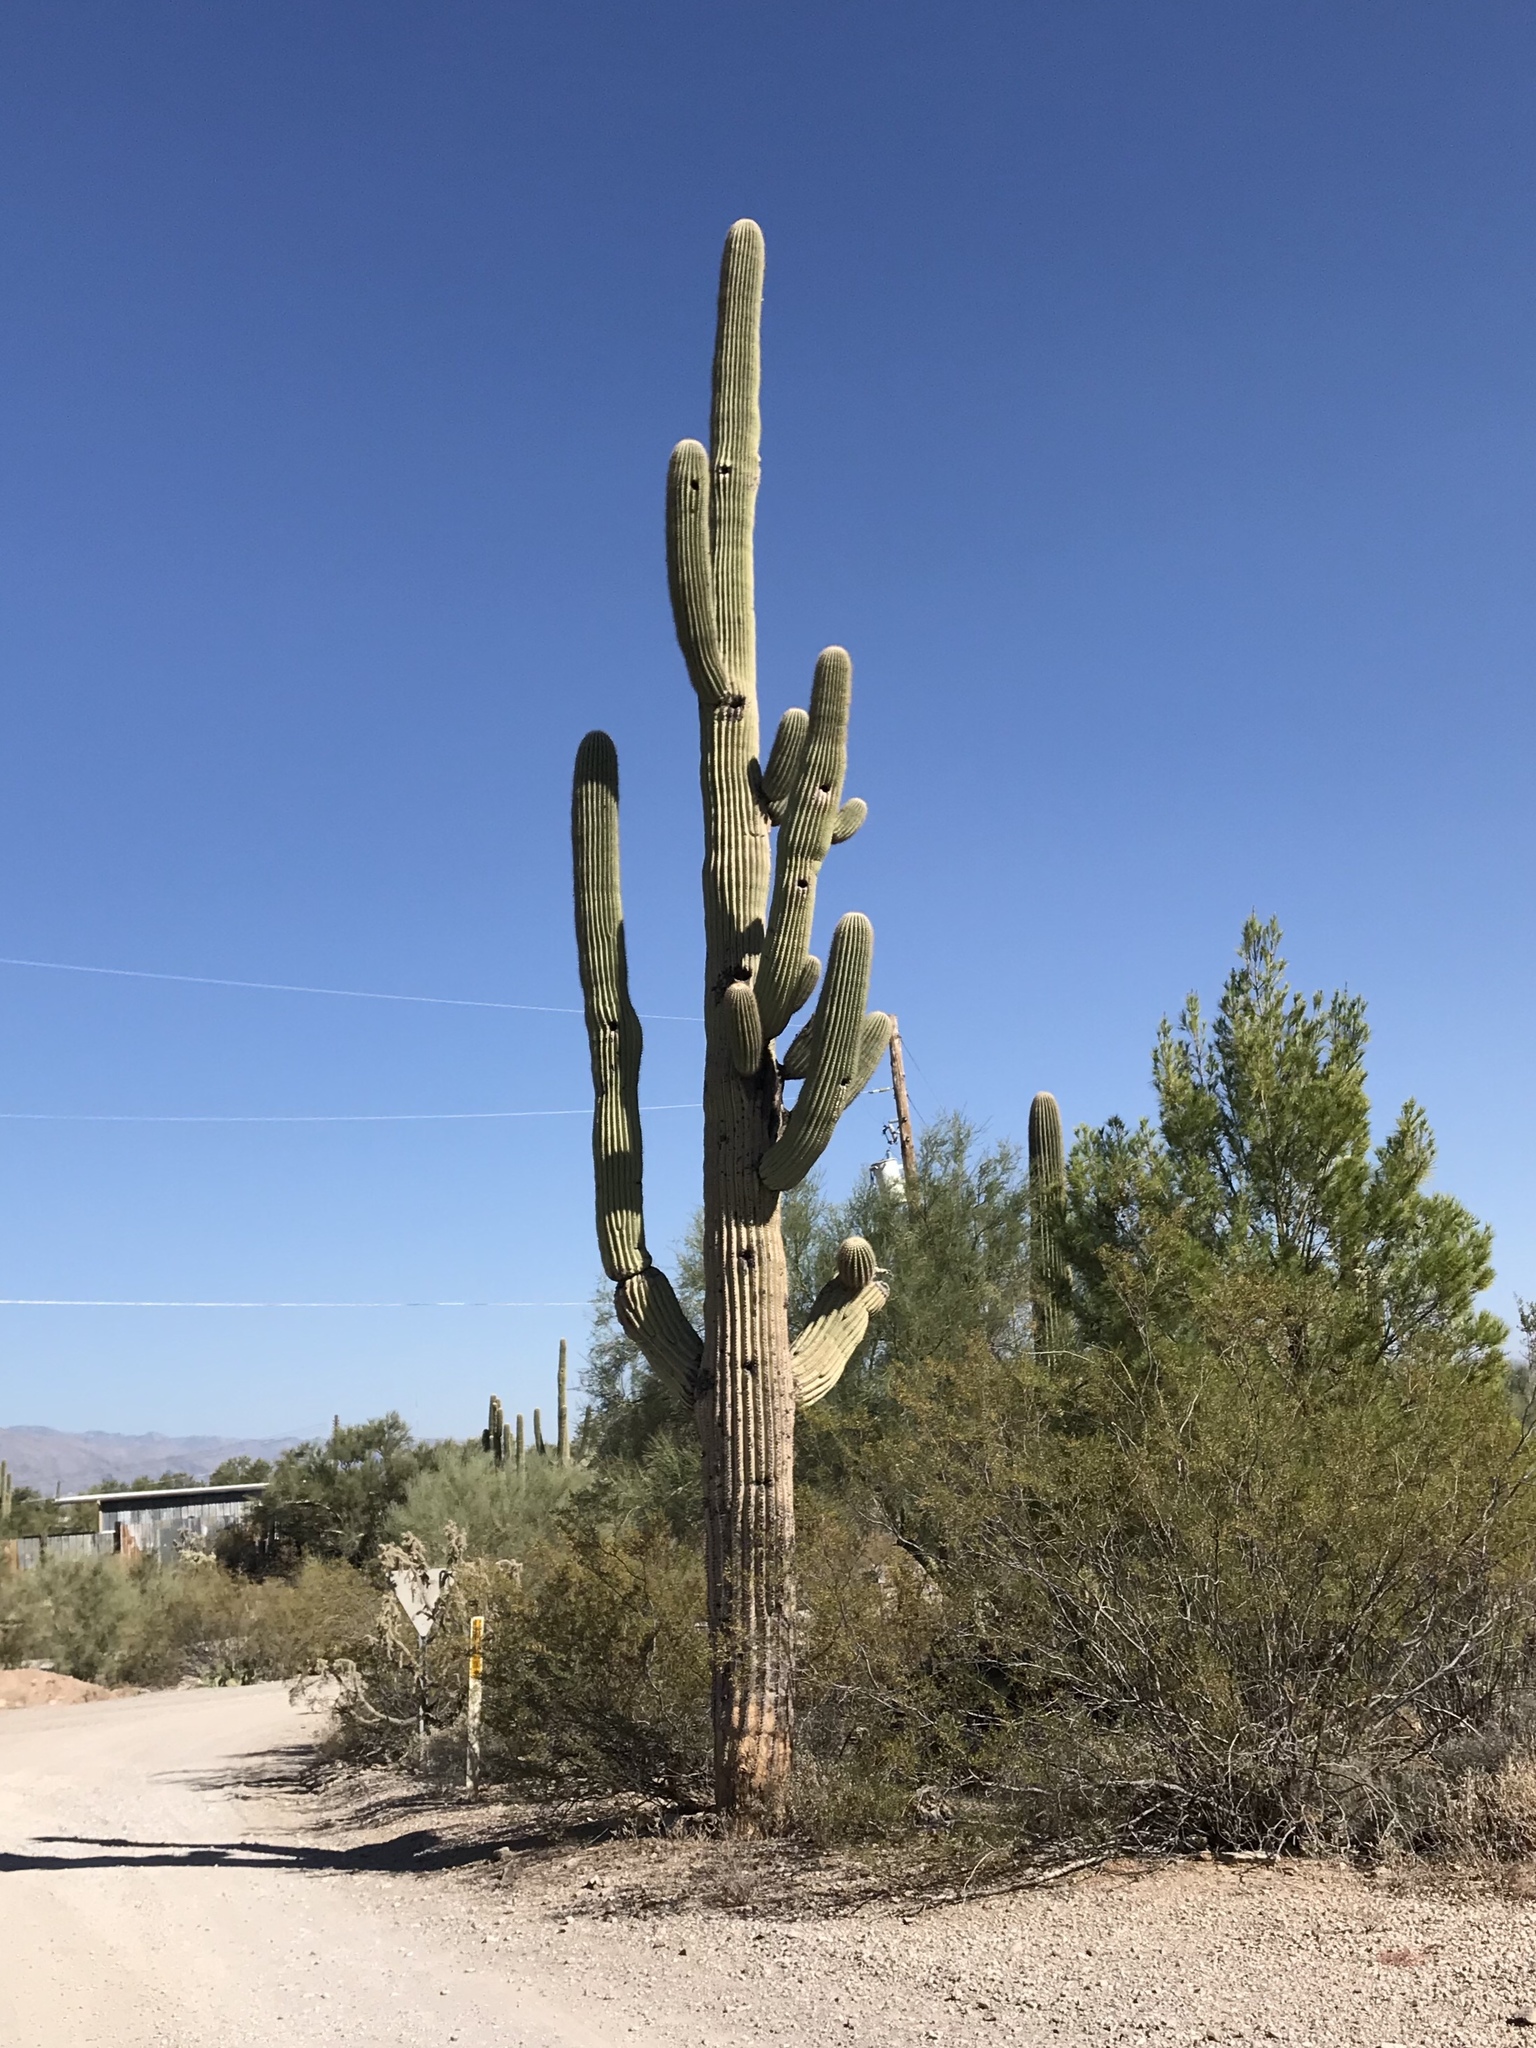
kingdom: Plantae
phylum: Tracheophyta
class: Magnoliopsida
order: Caryophyllales
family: Cactaceae
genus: Carnegiea
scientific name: Carnegiea gigantea
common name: Saguaro
